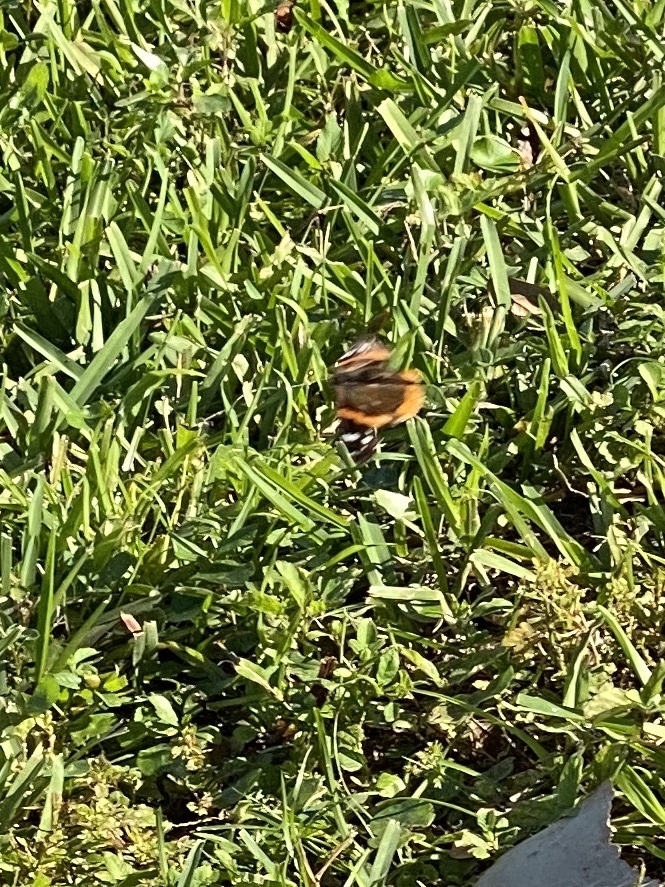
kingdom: Animalia
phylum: Arthropoda
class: Insecta
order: Lepidoptera
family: Nymphalidae
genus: Vanessa
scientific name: Vanessa atalanta
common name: Red admiral
